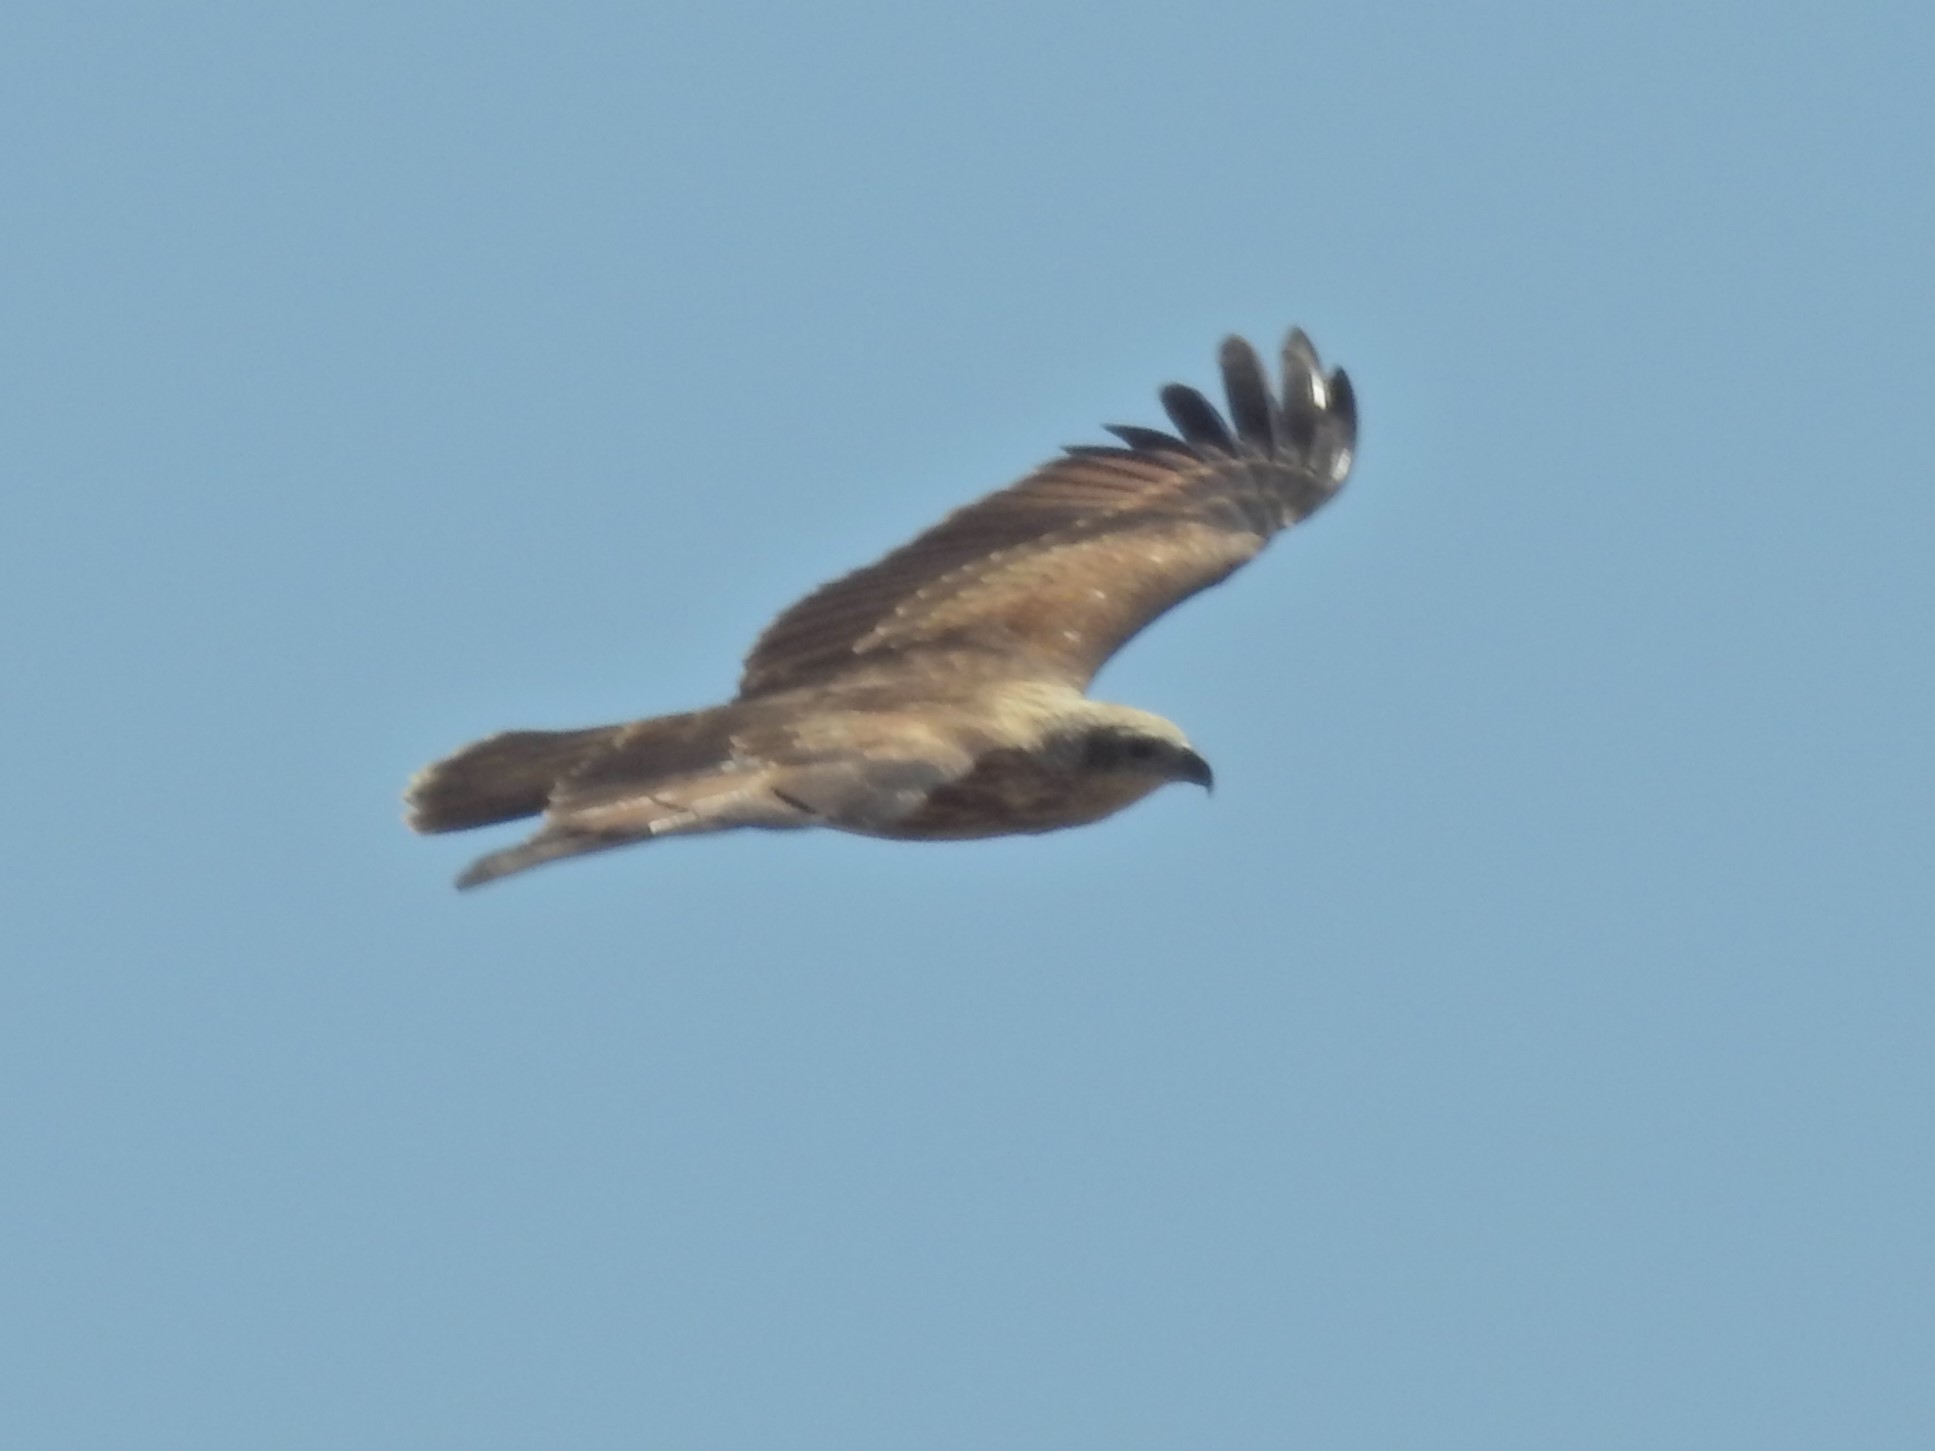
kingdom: Animalia
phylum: Chordata
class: Aves
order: Accipitriformes
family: Accipitridae
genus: Haliastur
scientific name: Haliastur indus
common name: Brahminy kite
